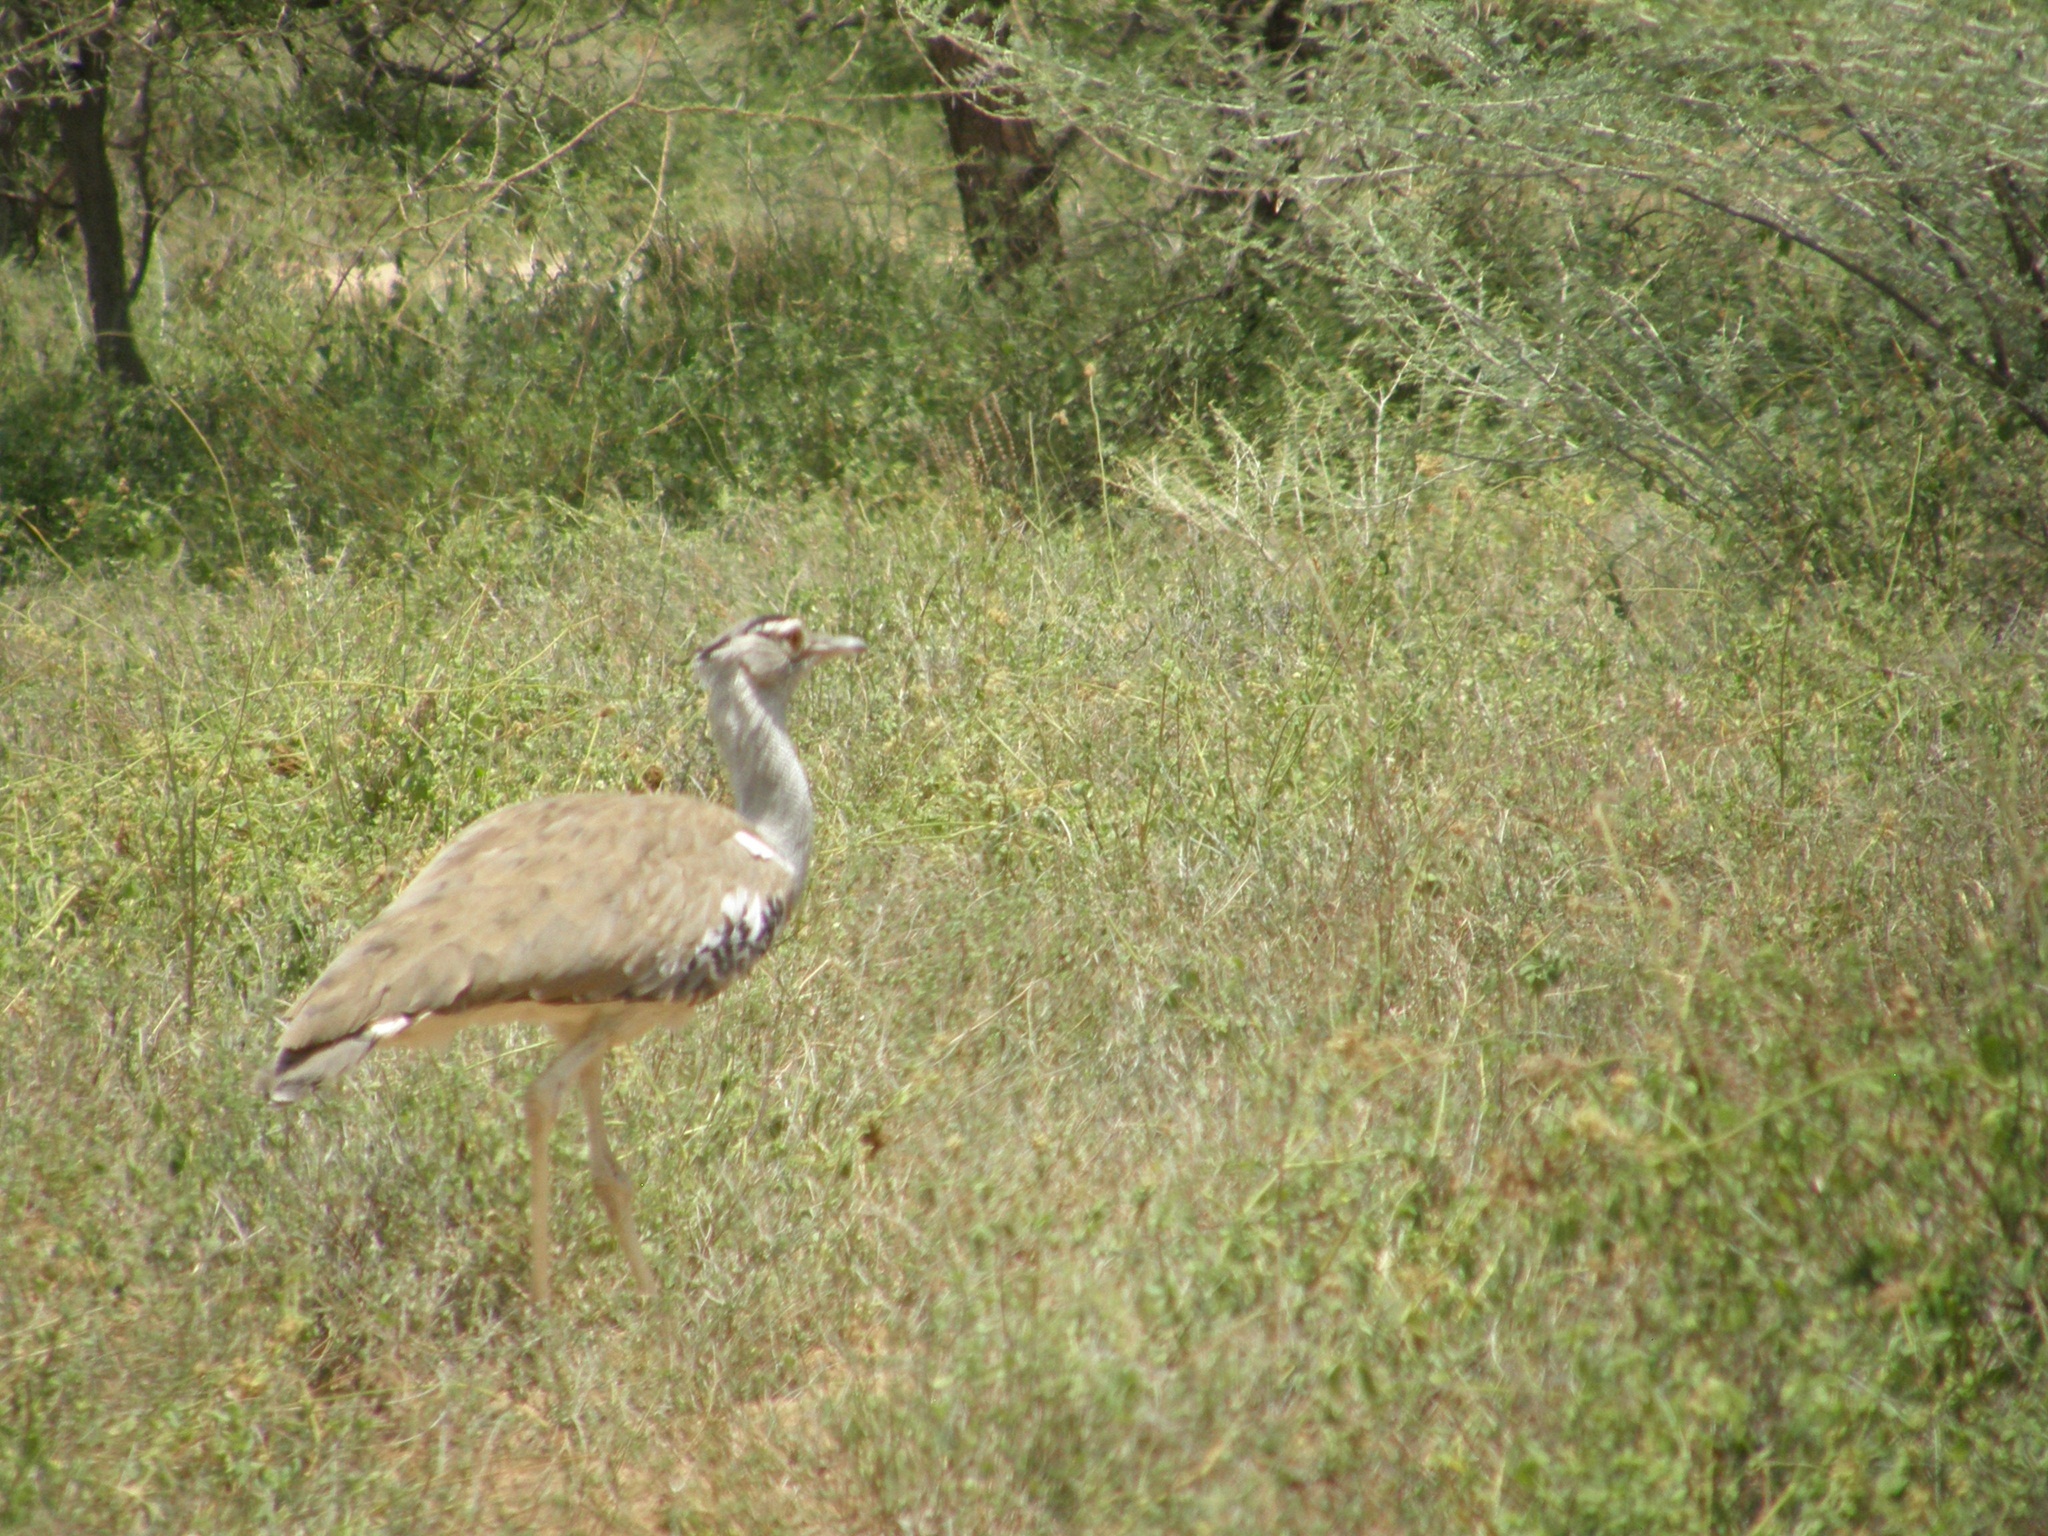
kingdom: Animalia
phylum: Chordata
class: Aves
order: Otidiformes
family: Otididae
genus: Ardeotis
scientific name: Ardeotis kori
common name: Kori bustard
